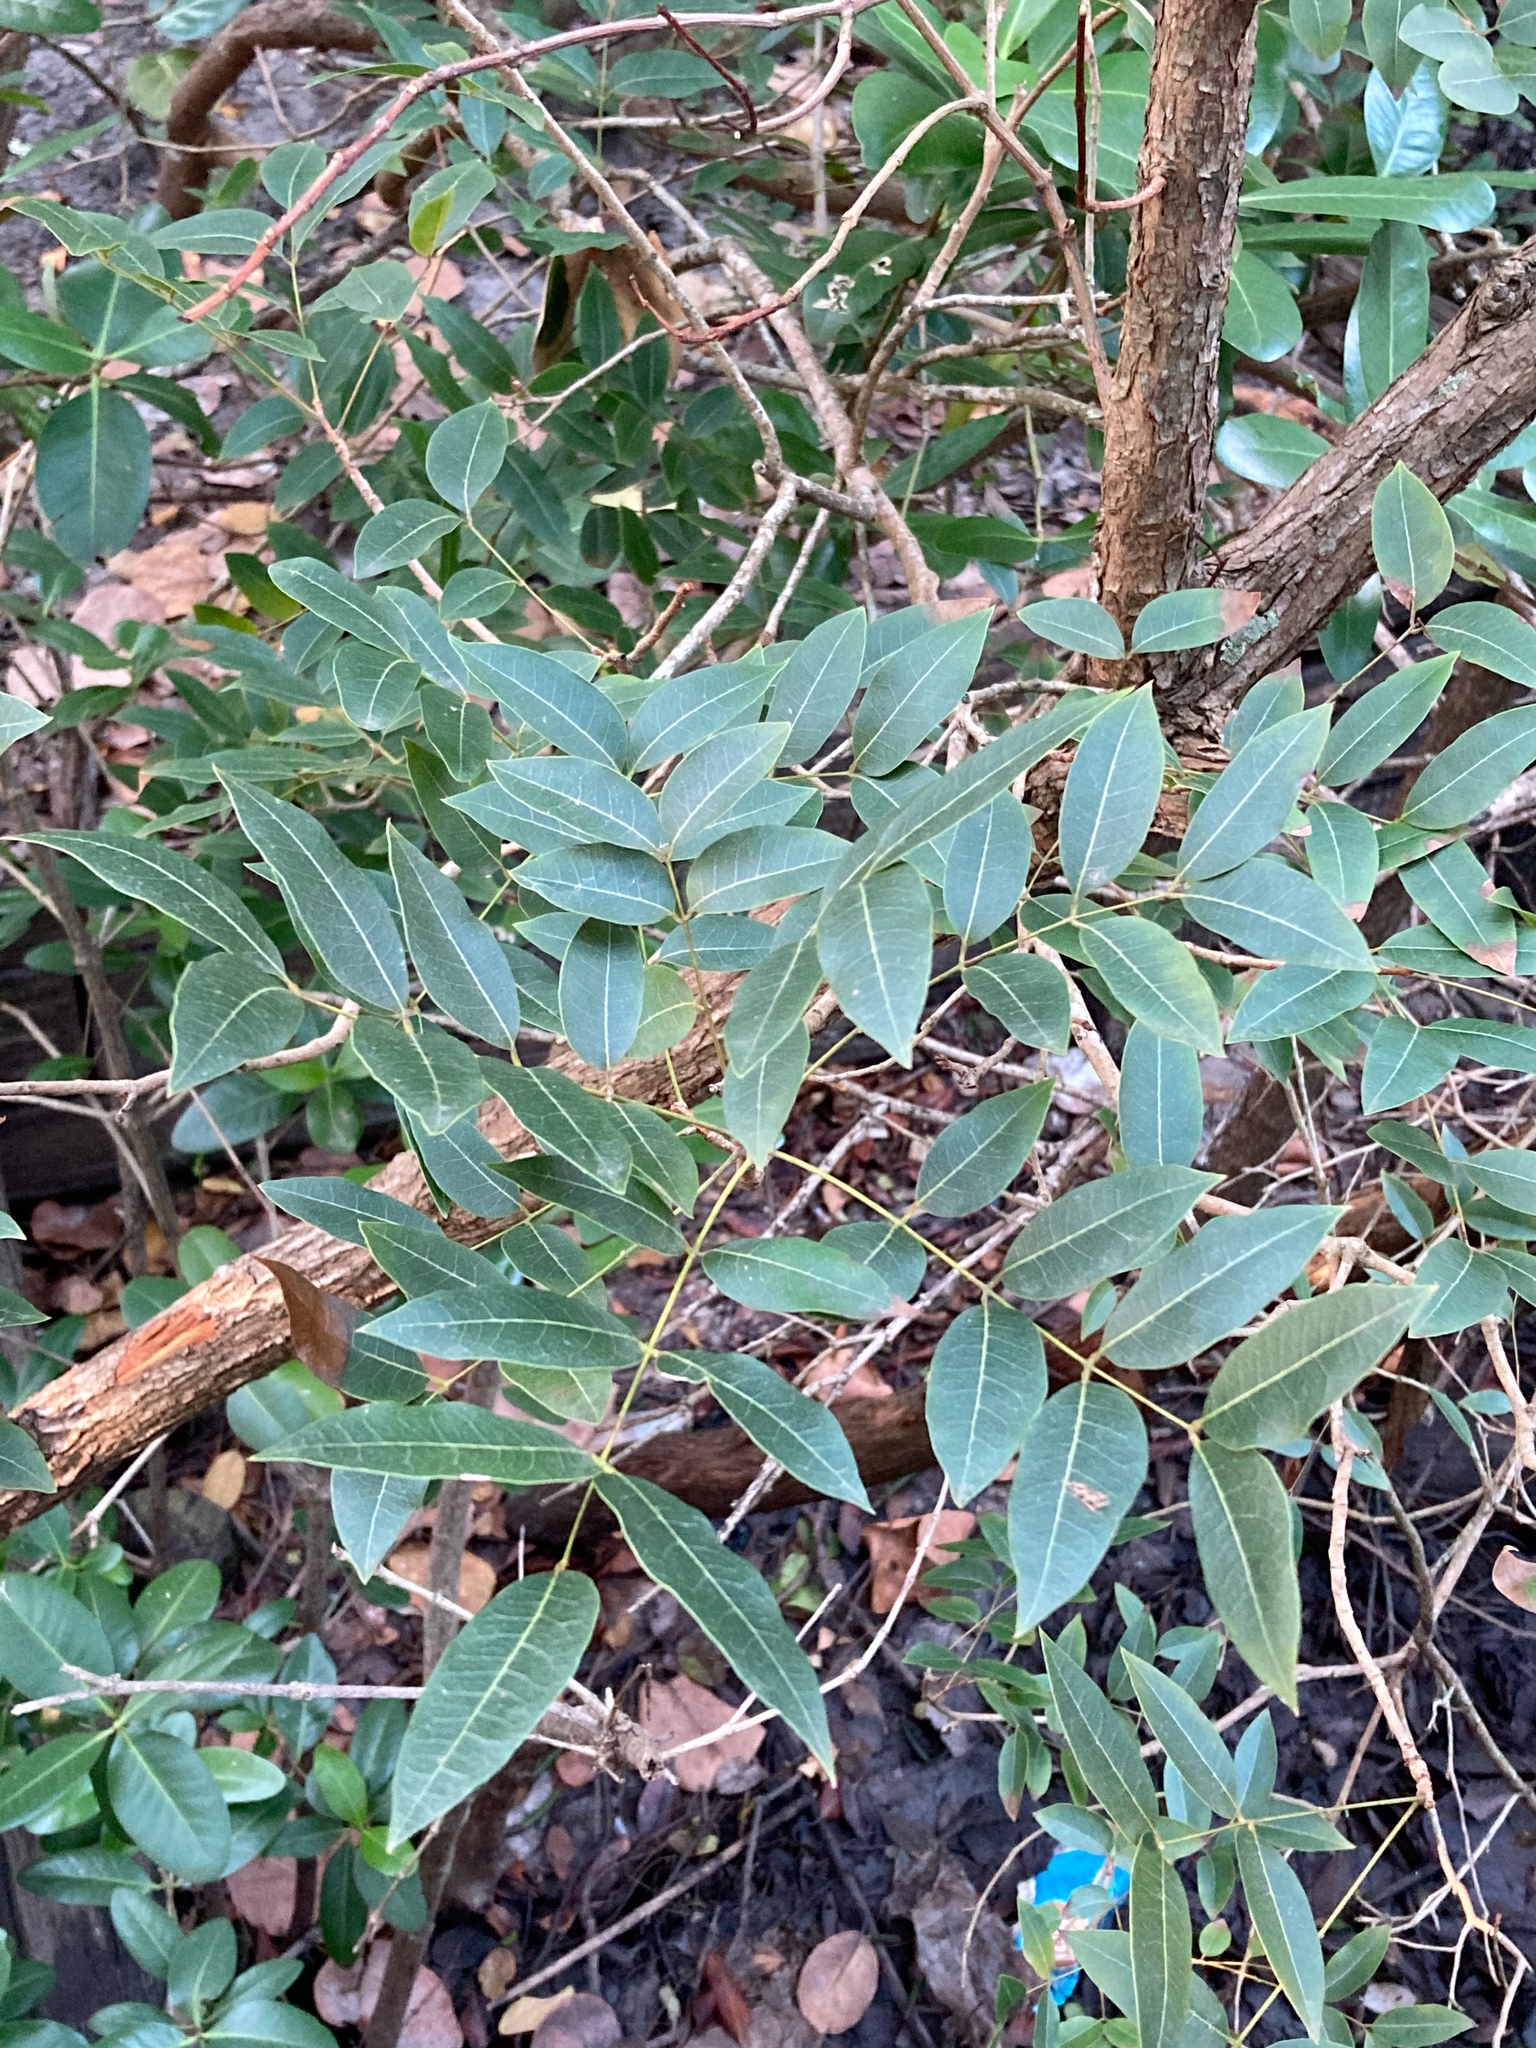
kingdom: Plantae
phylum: Tracheophyta
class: Magnoliopsida
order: Sapindales
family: Meliaceae
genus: Swietenia
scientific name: Swietenia mahagoni
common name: West indian mahogany
